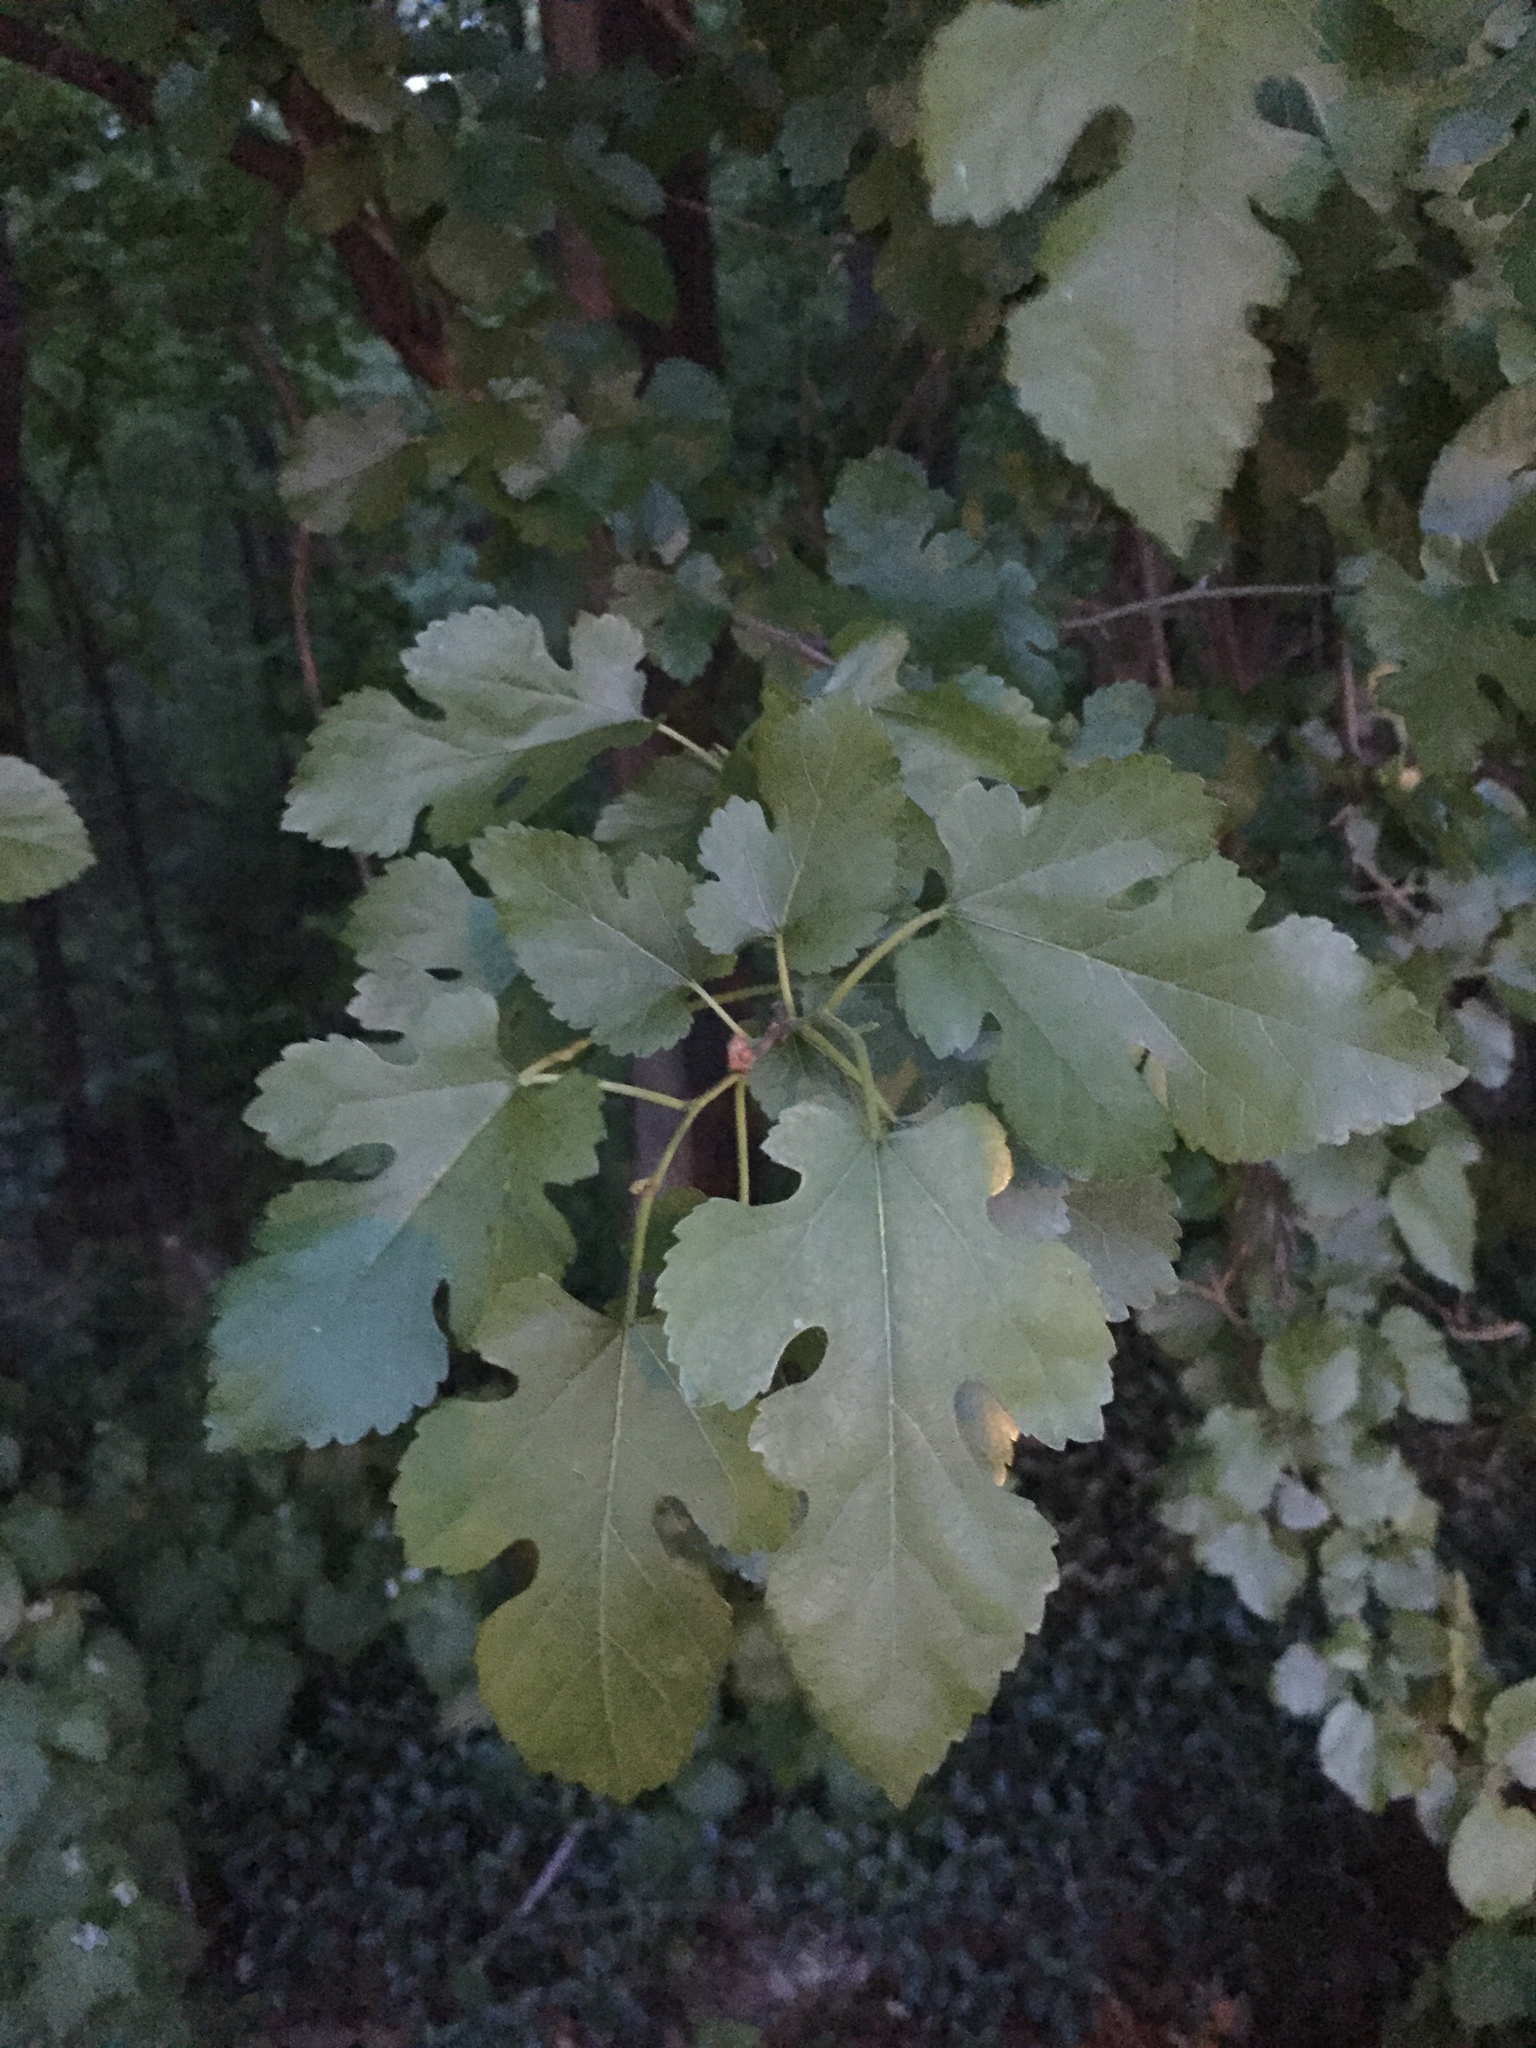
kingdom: Plantae
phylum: Tracheophyta
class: Magnoliopsida
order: Rosales
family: Moraceae
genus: Morus
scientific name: Morus alba
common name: White mulberry
